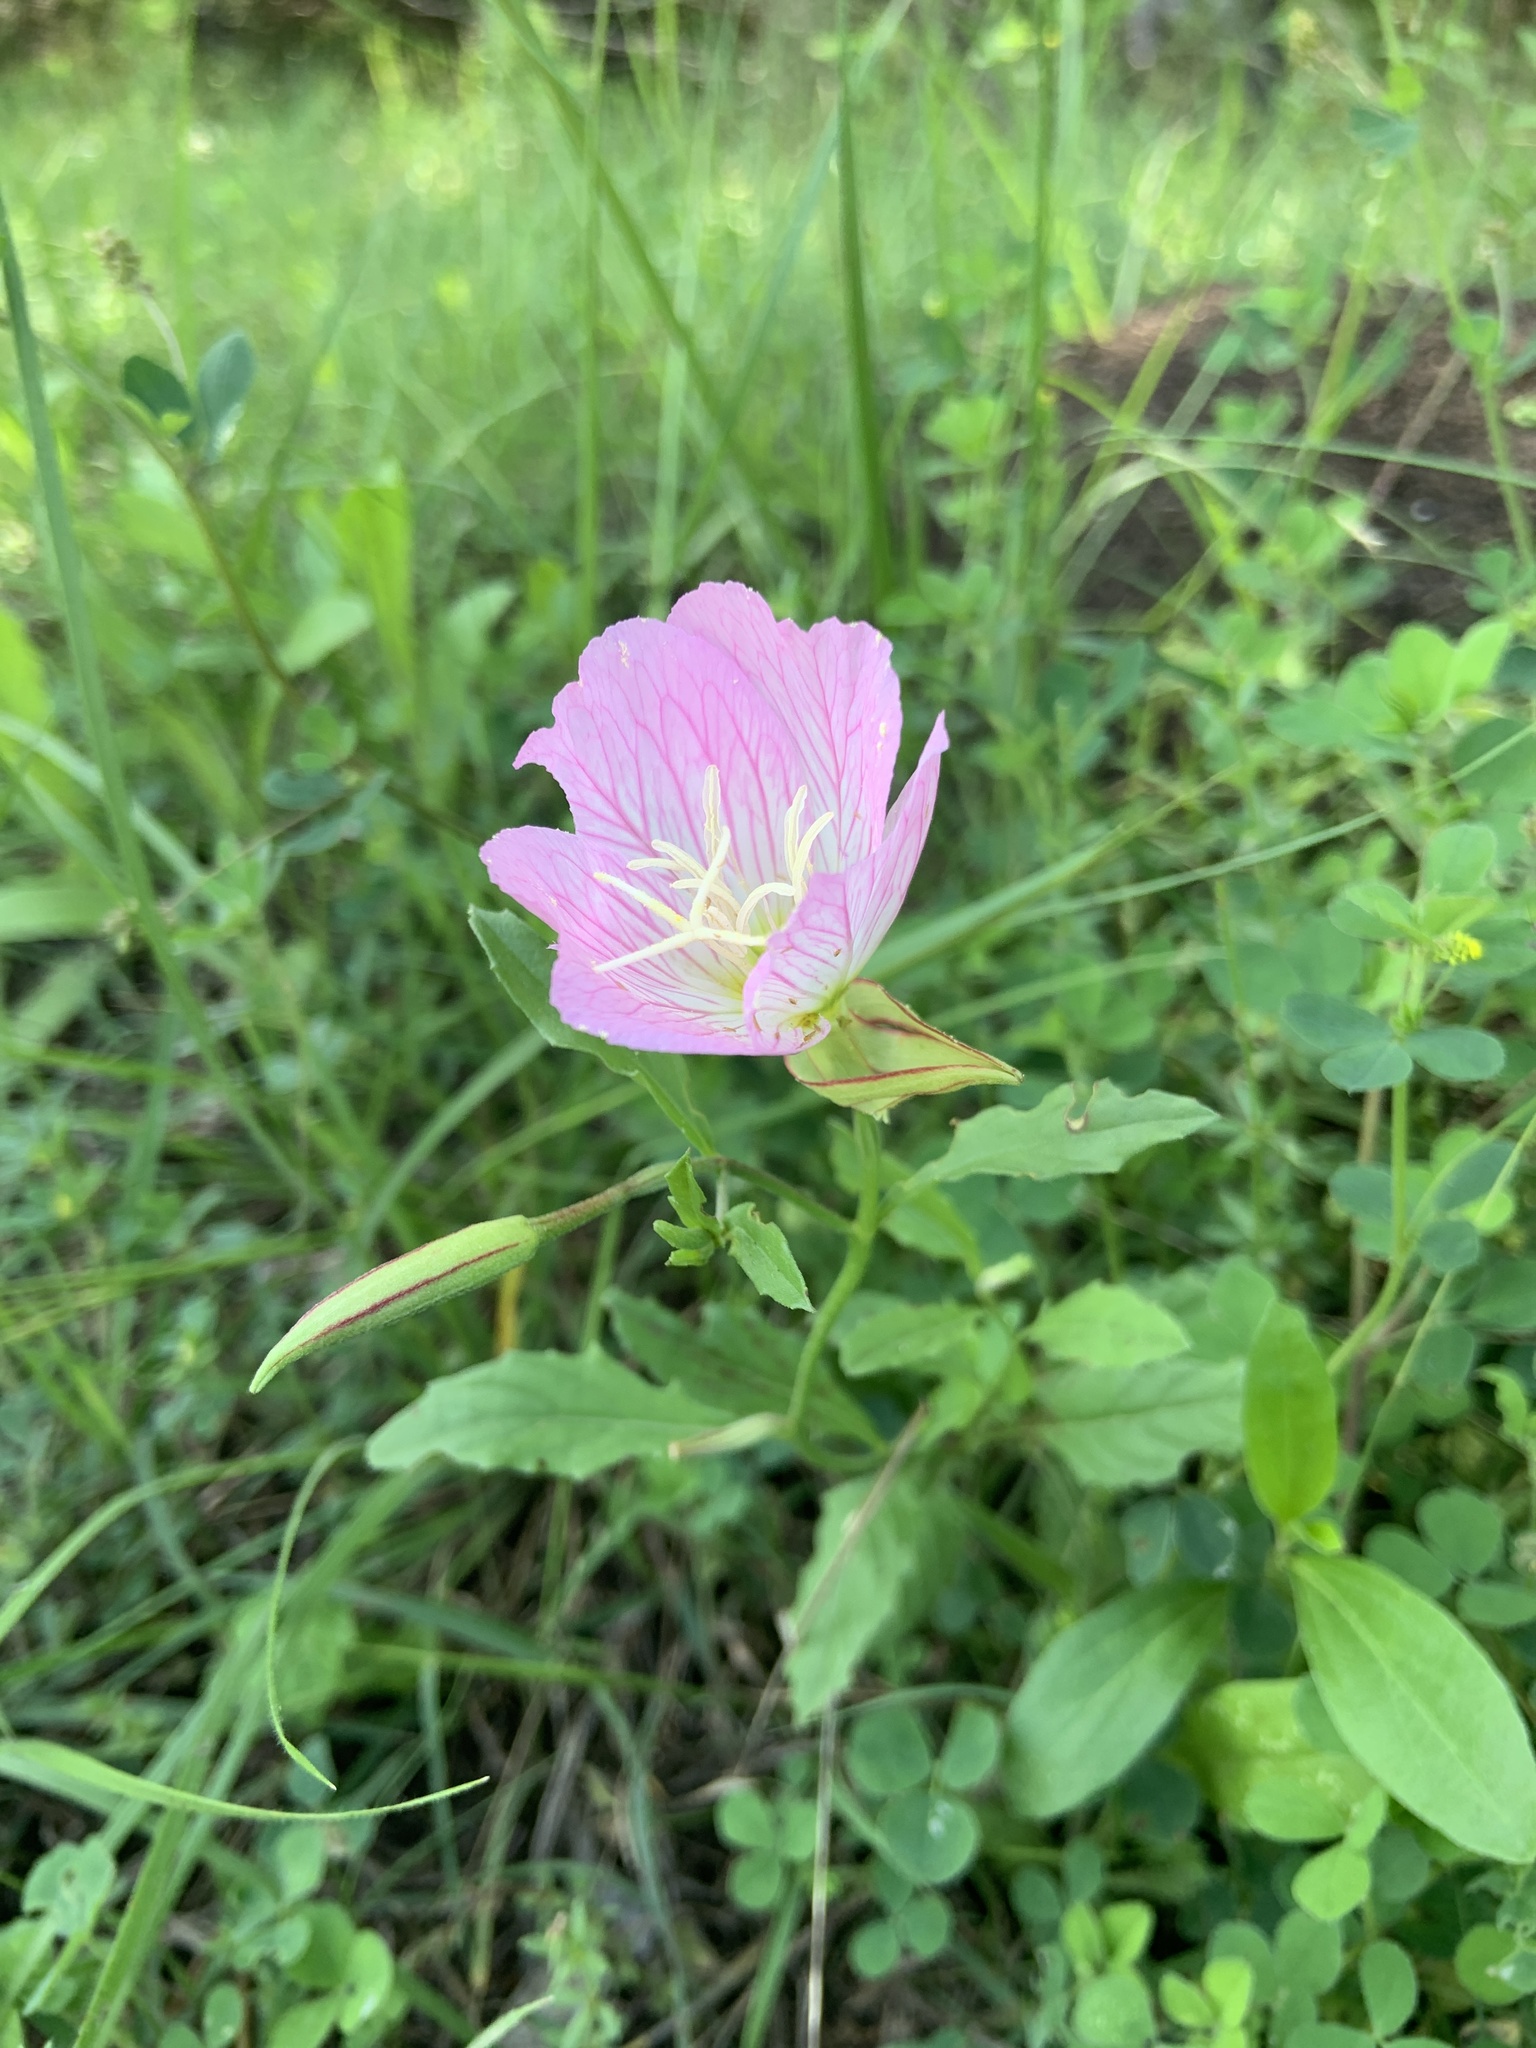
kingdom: Plantae
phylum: Tracheophyta
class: Magnoliopsida
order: Myrtales
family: Onagraceae
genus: Oenothera
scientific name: Oenothera speciosa
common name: White evening-primrose
